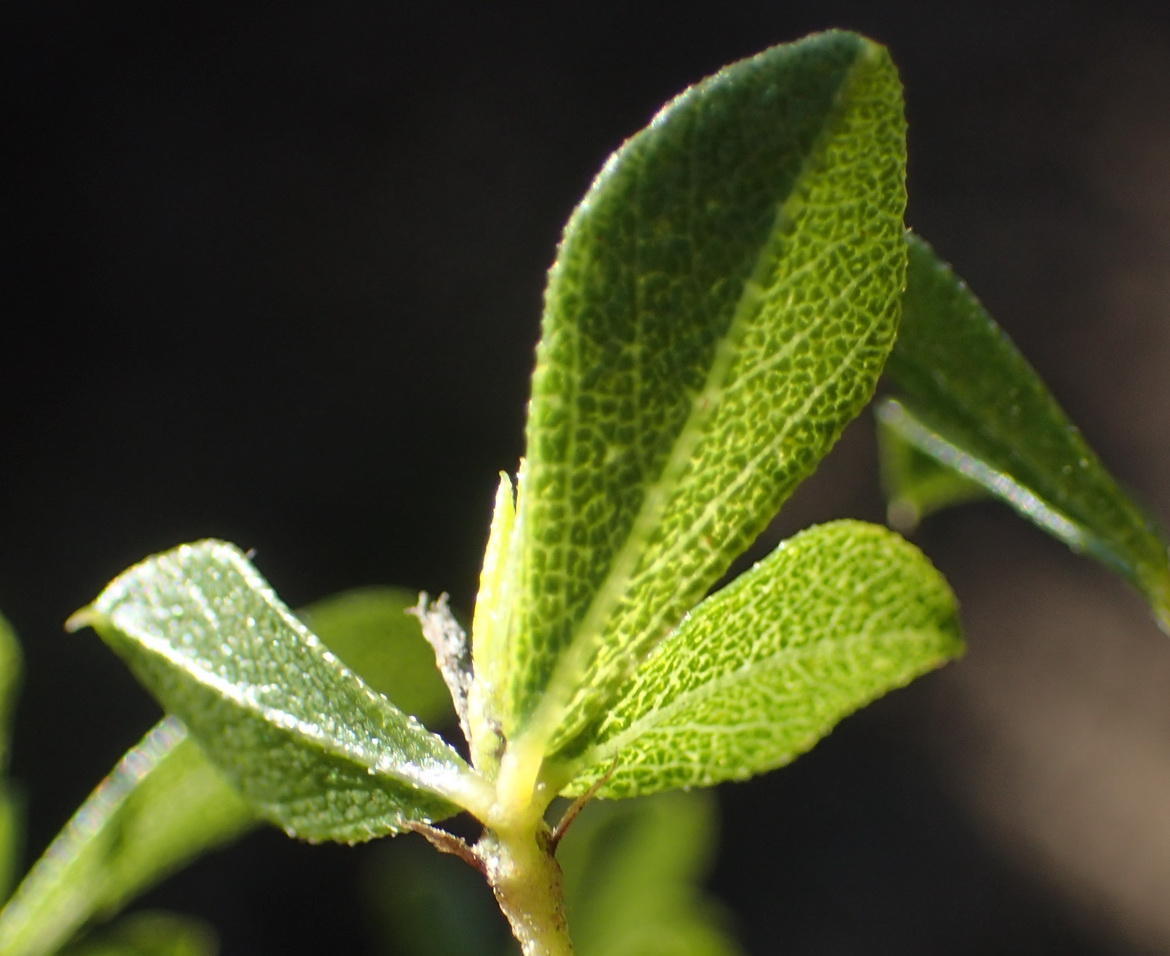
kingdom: Plantae
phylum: Tracheophyta
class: Magnoliopsida
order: Fabales
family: Fabaceae
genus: Psoralea
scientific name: Psoralea bowieana
